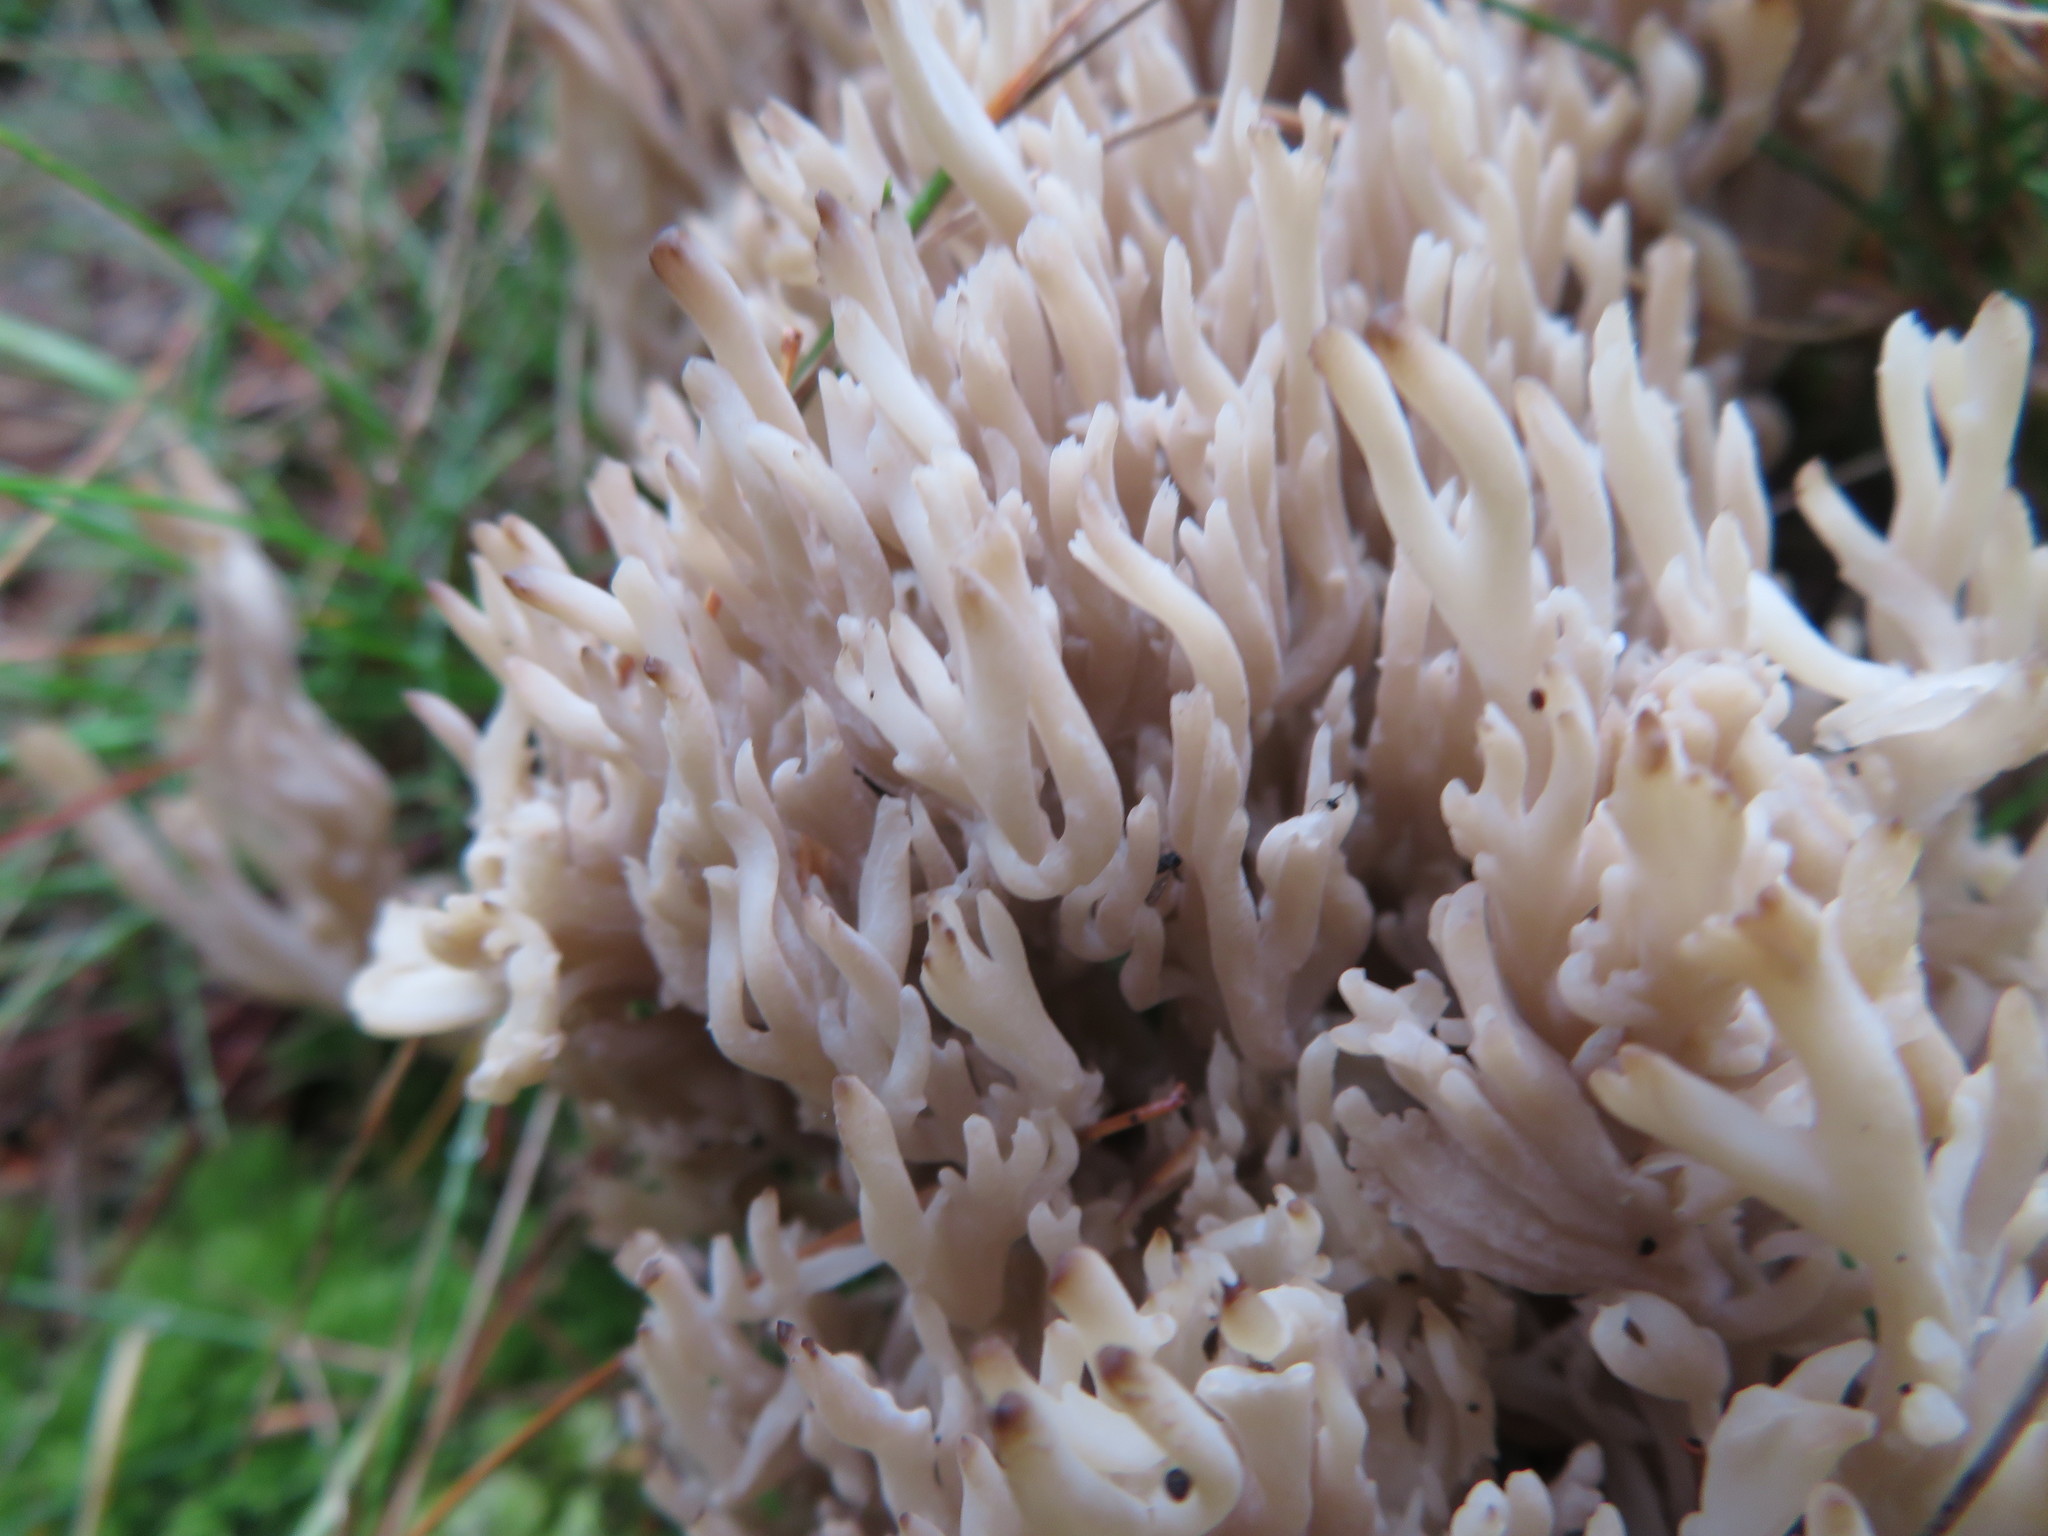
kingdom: Fungi
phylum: Basidiomycota
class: Agaricomycetes
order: Cantharellales
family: Hydnaceae
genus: Clavulina
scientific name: Clavulina coralloides
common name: Crested coral
